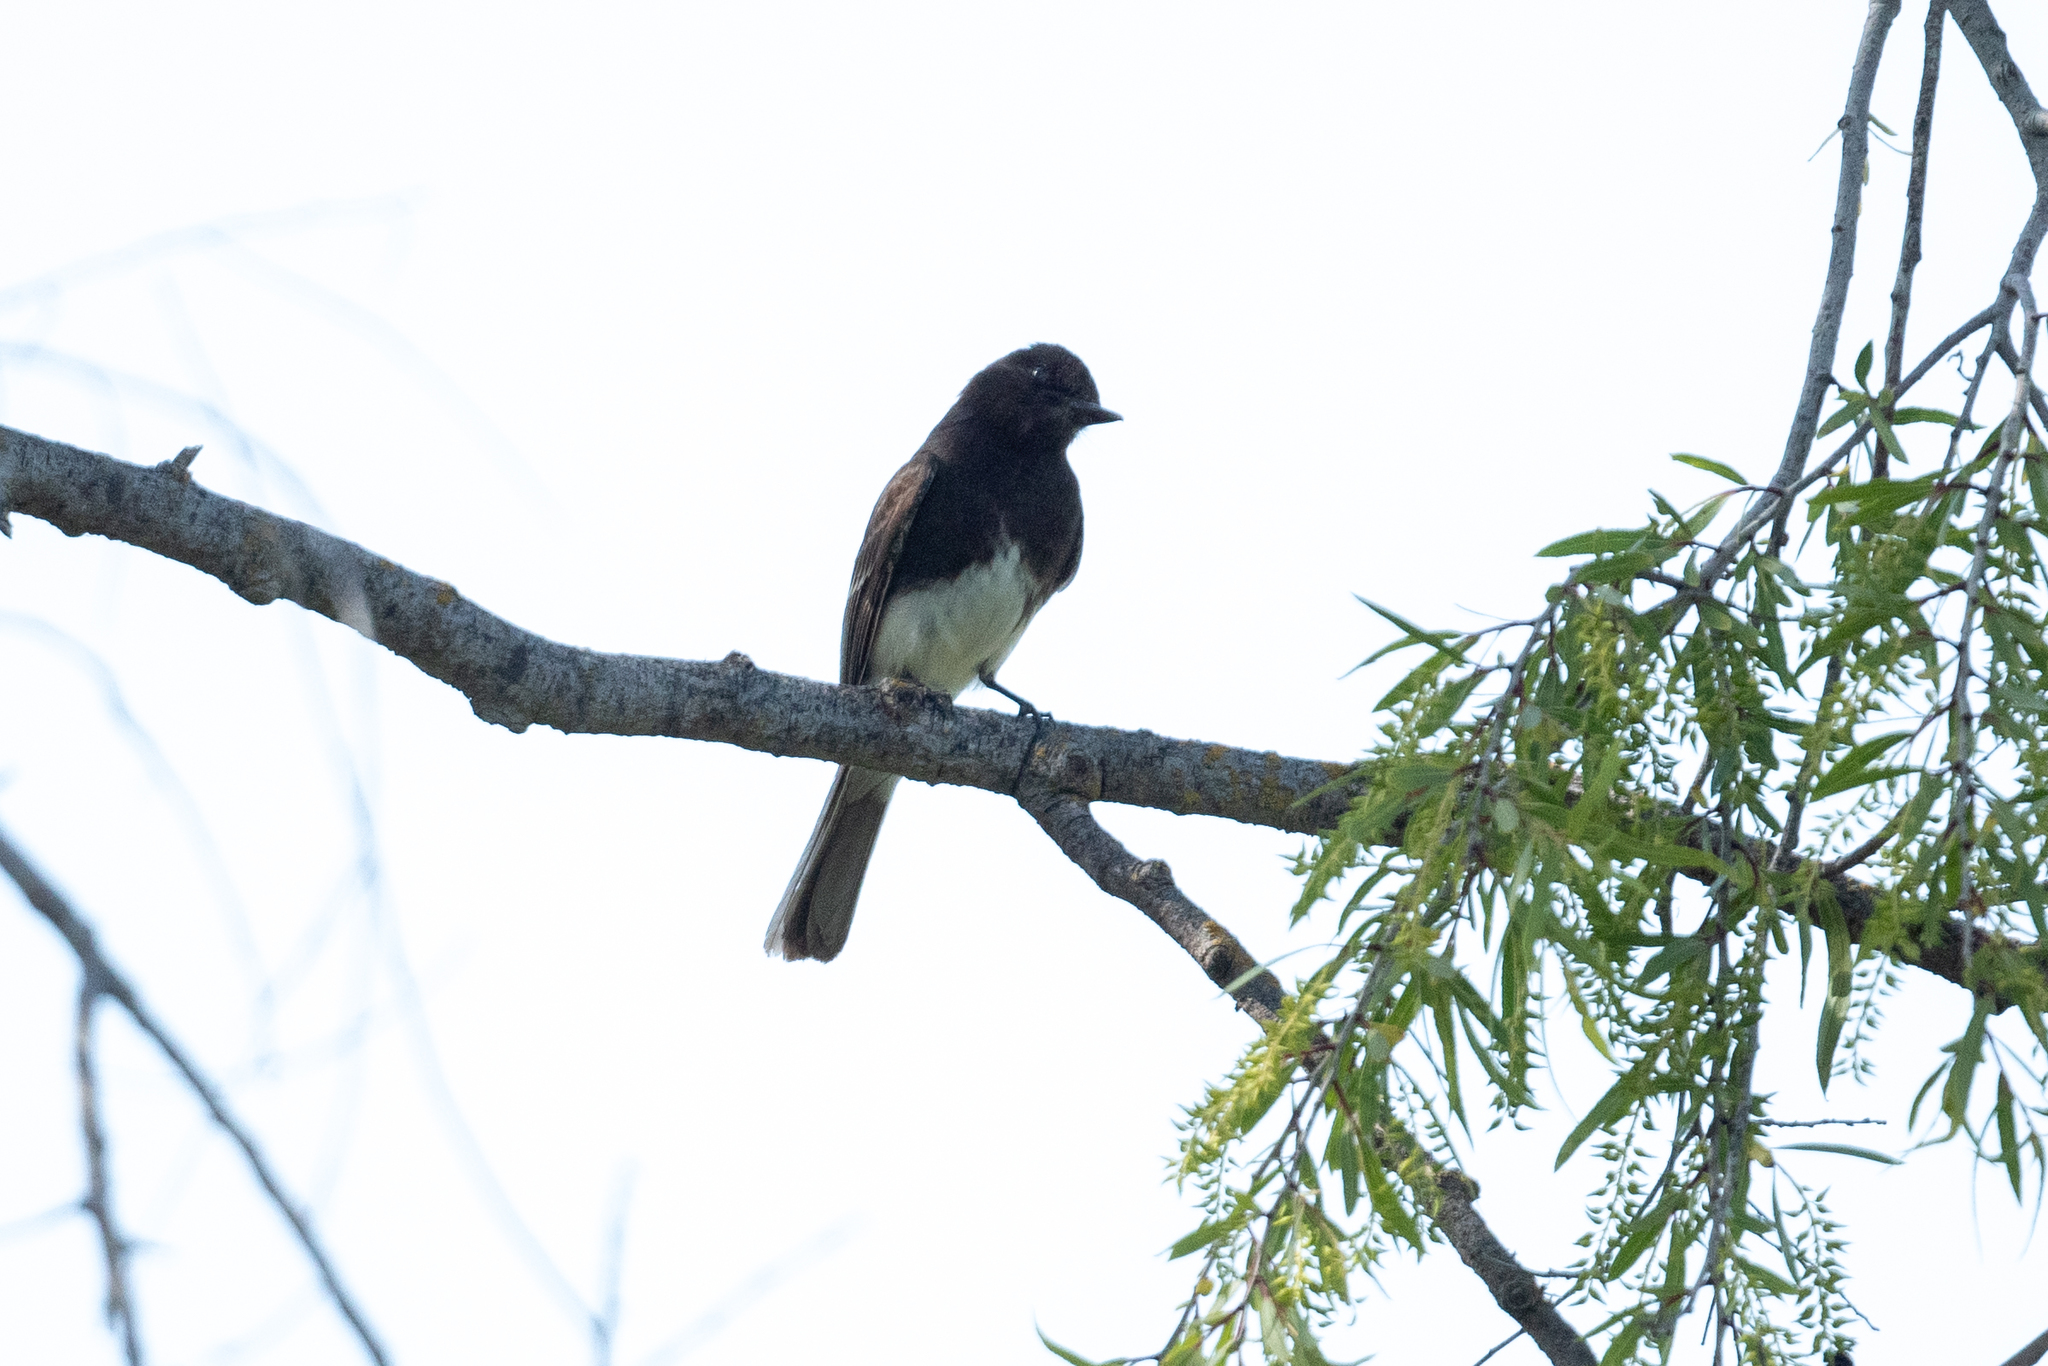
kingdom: Animalia
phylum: Chordata
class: Aves
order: Passeriformes
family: Tyrannidae
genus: Sayornis
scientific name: Sayornis nigricans
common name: Black phoebe
